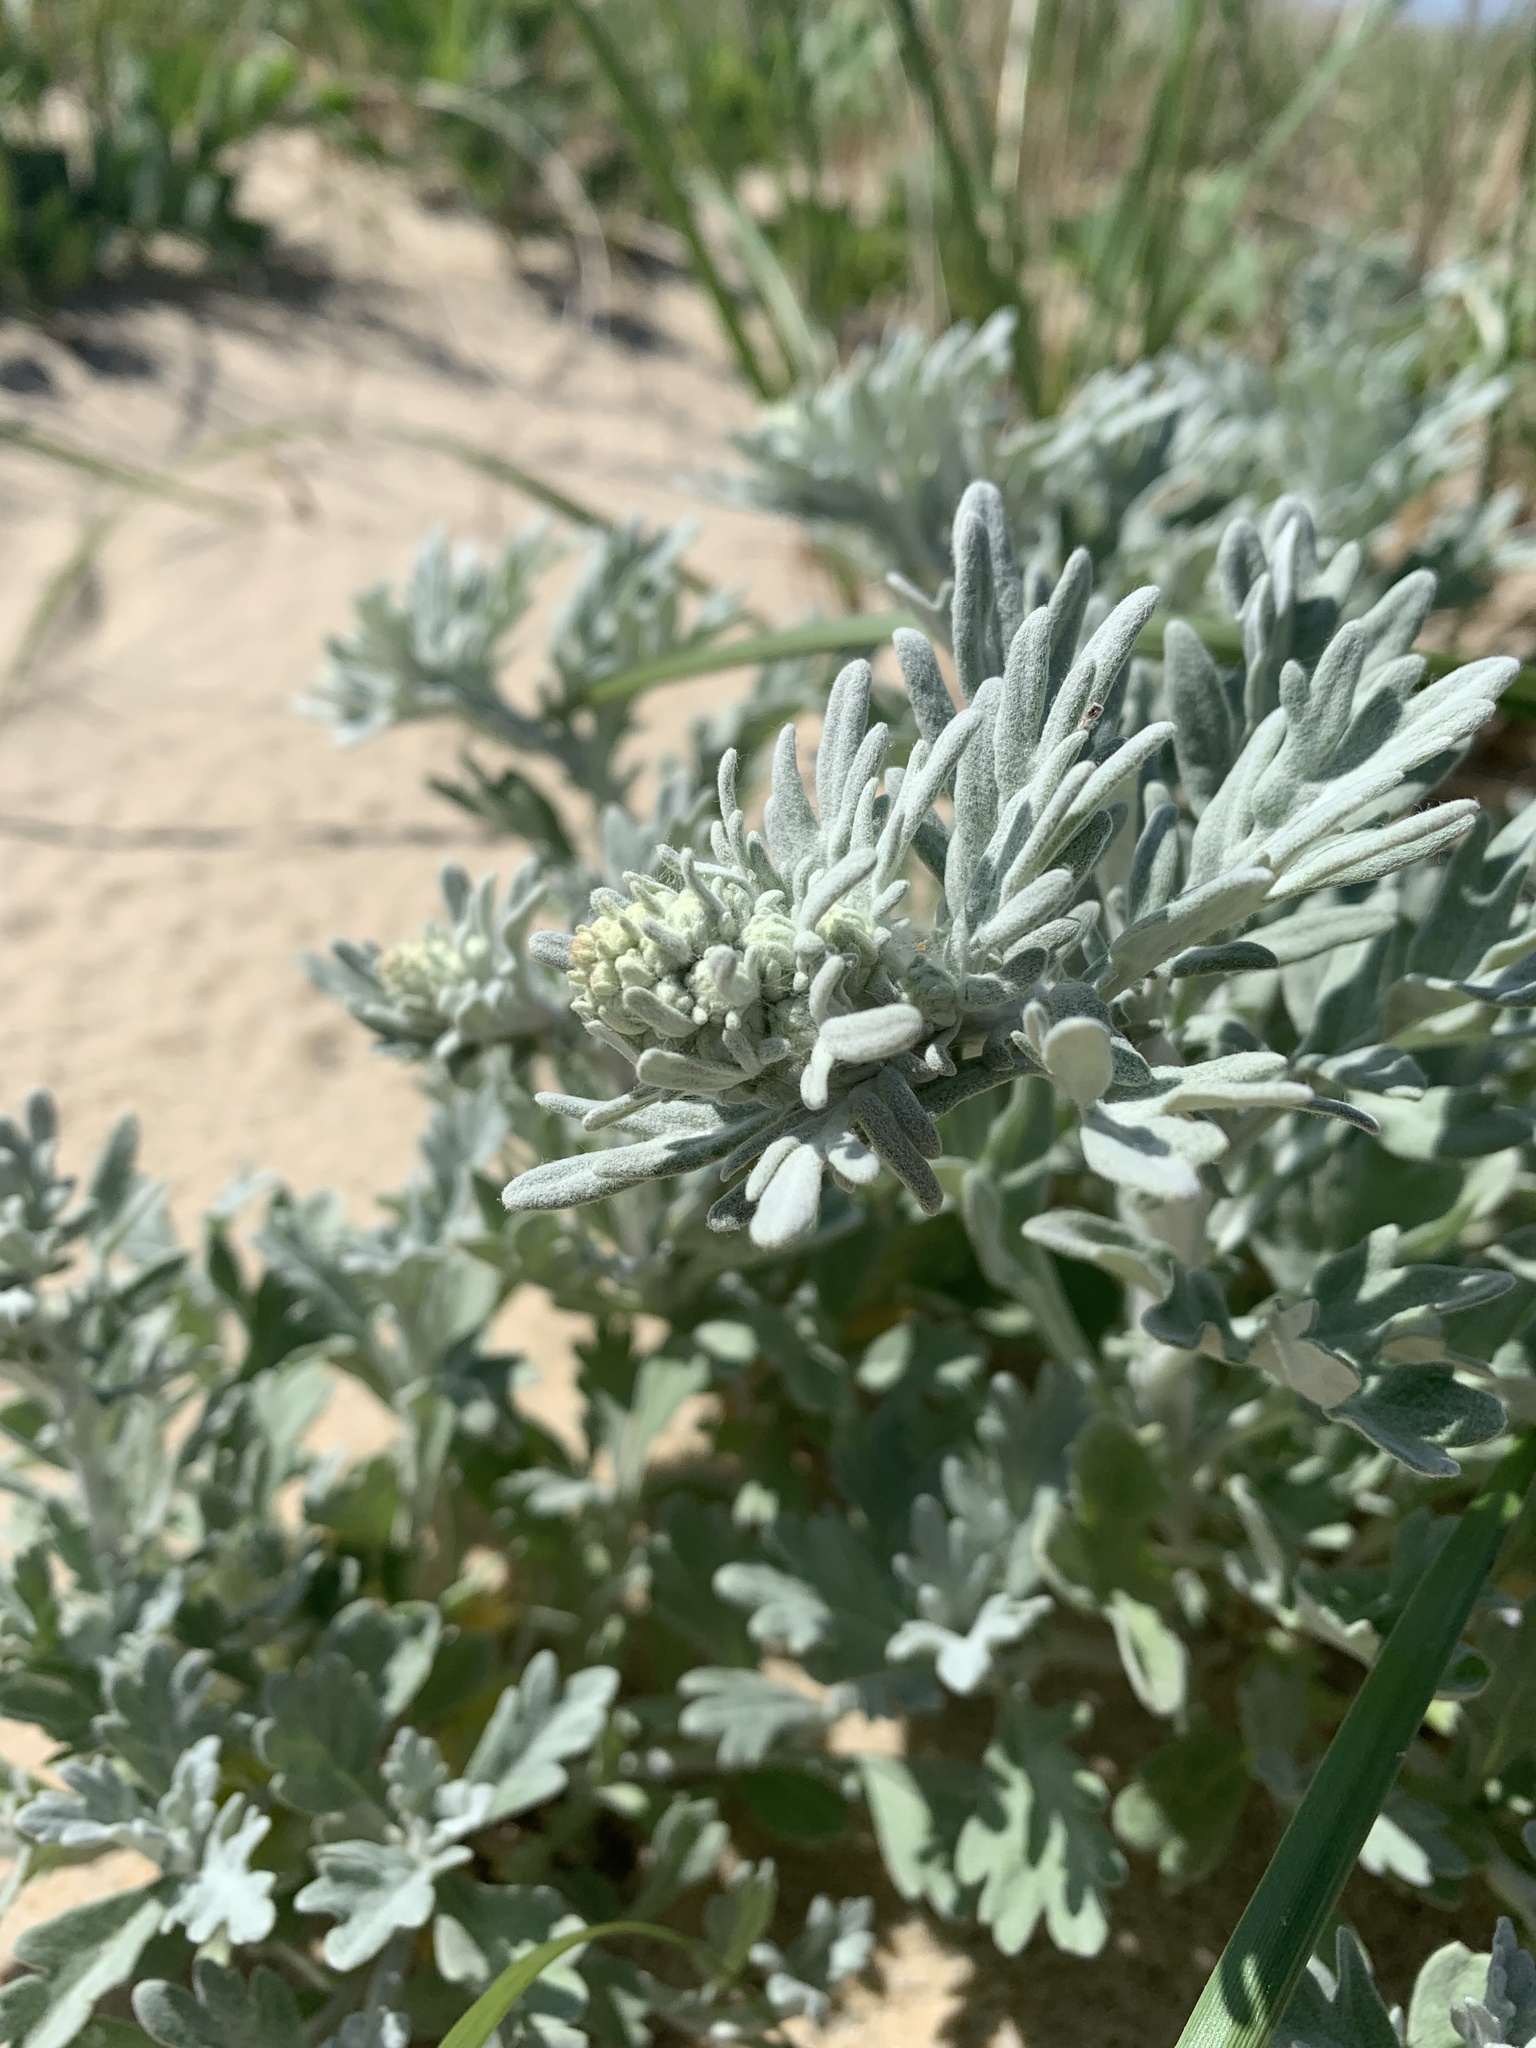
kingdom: Plantae
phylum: Tracheophyta
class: Magnoliopsida
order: Asterales
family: Asteraceae
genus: Artemisia
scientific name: Artemisia stelleriana
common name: Beach wormwood
